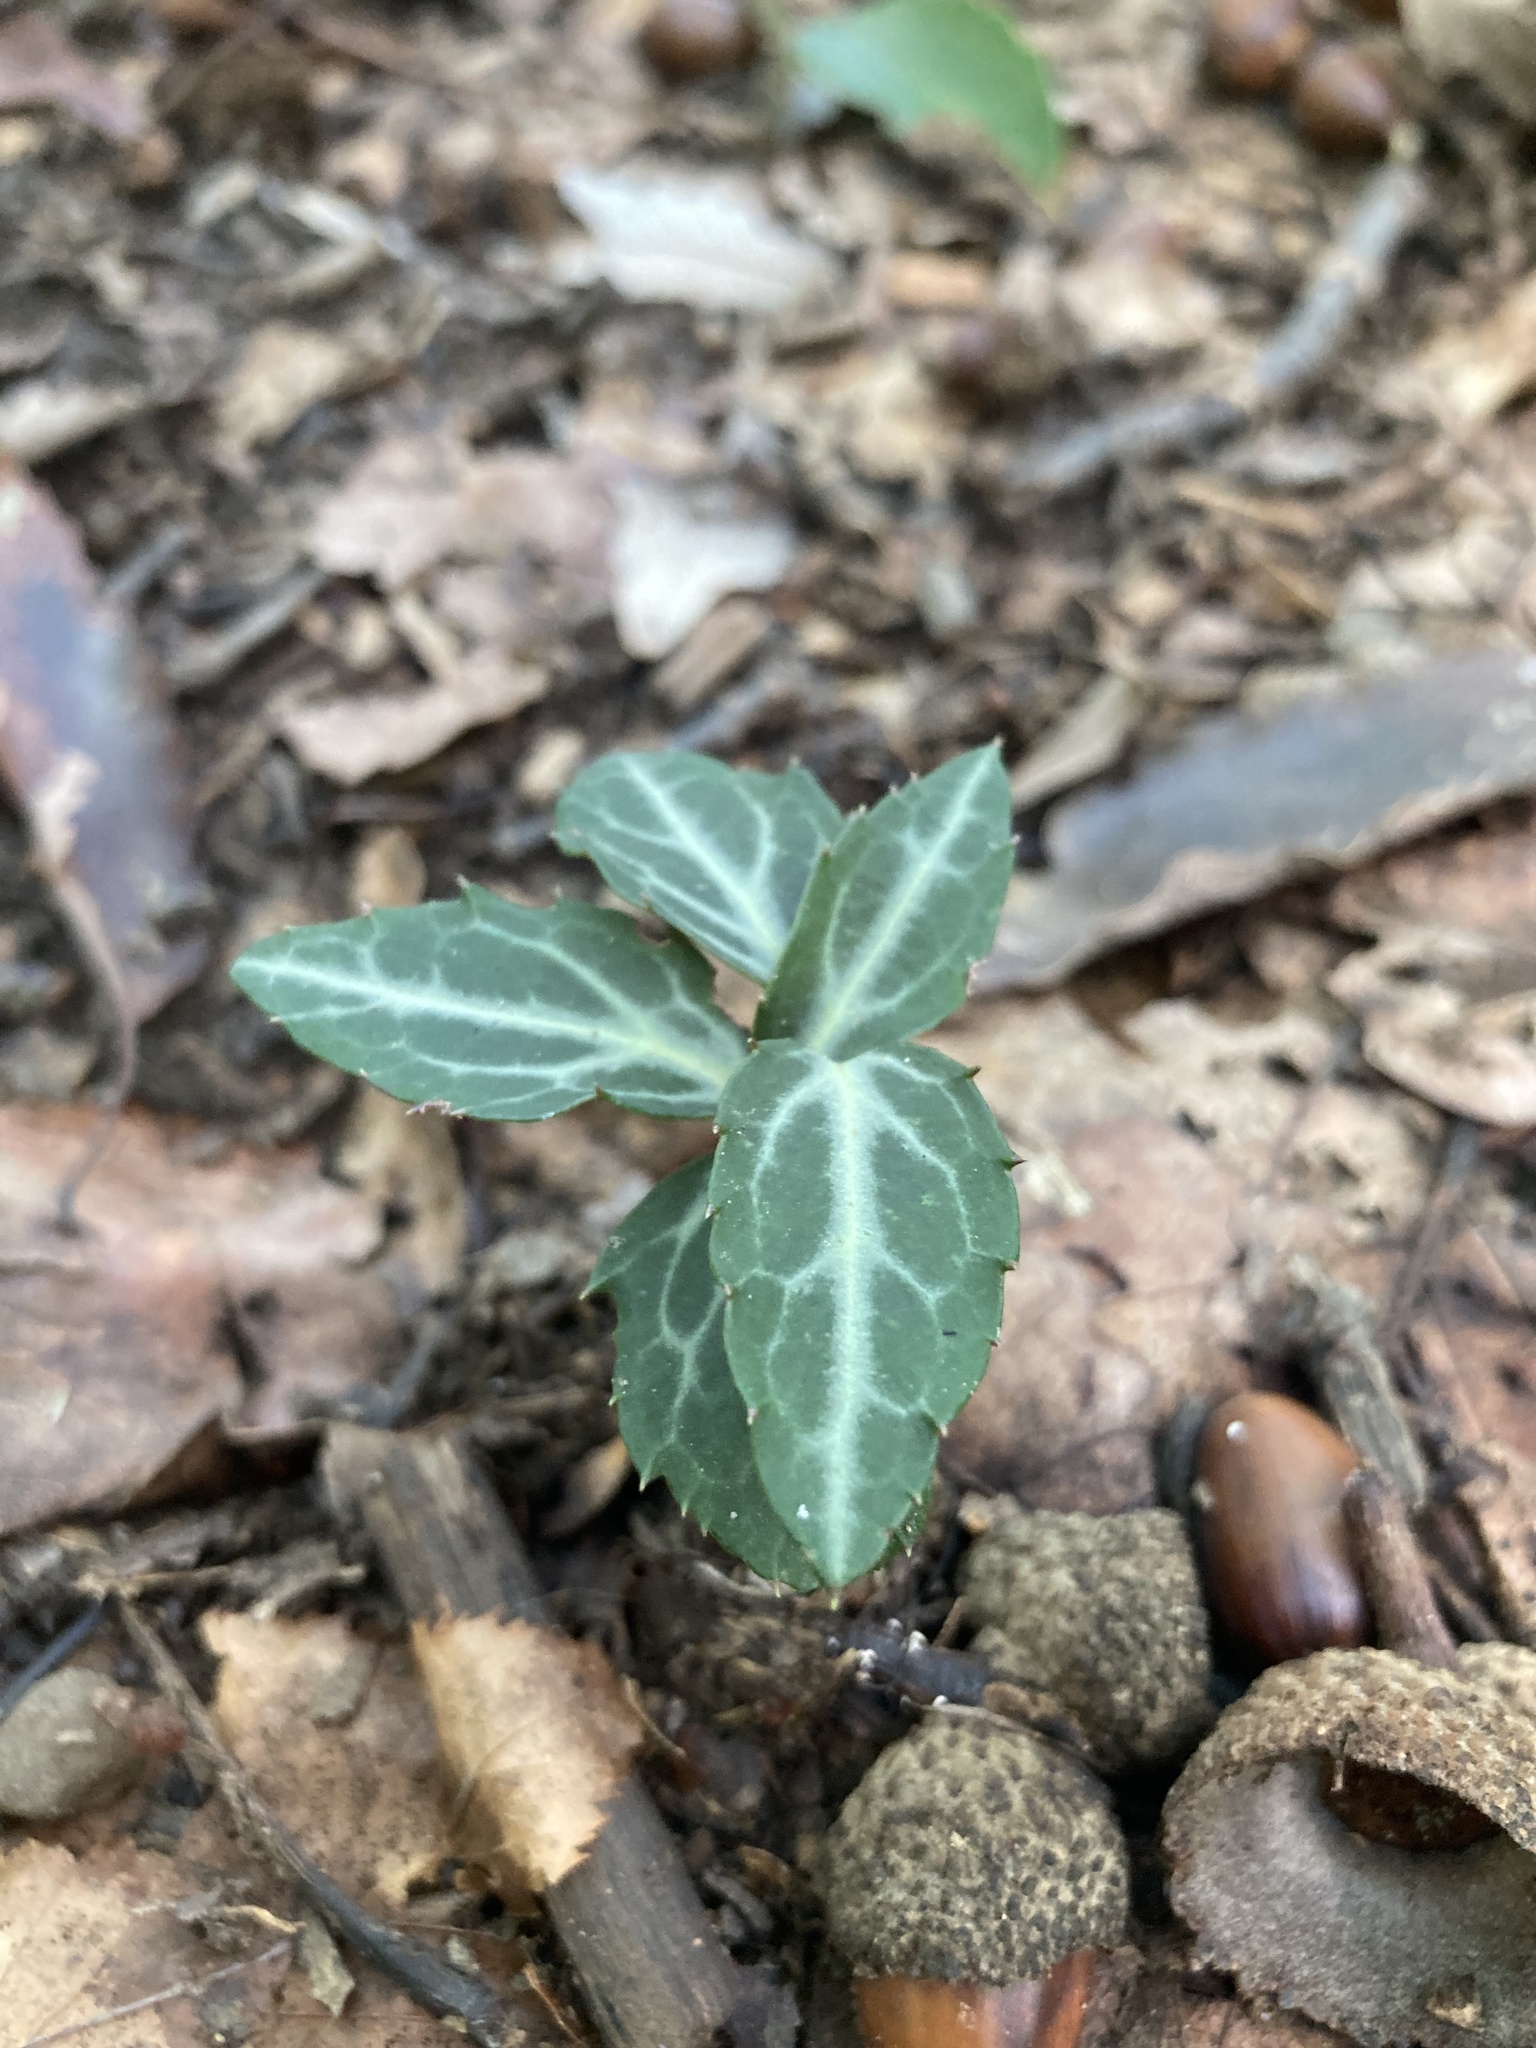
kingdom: Plantae
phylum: Tracheophyta
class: Magnoliopsida
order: Ericales
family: Ericaceae
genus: Chimaphila
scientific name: Chimaphila maculata
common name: Spotted pipsissewa
